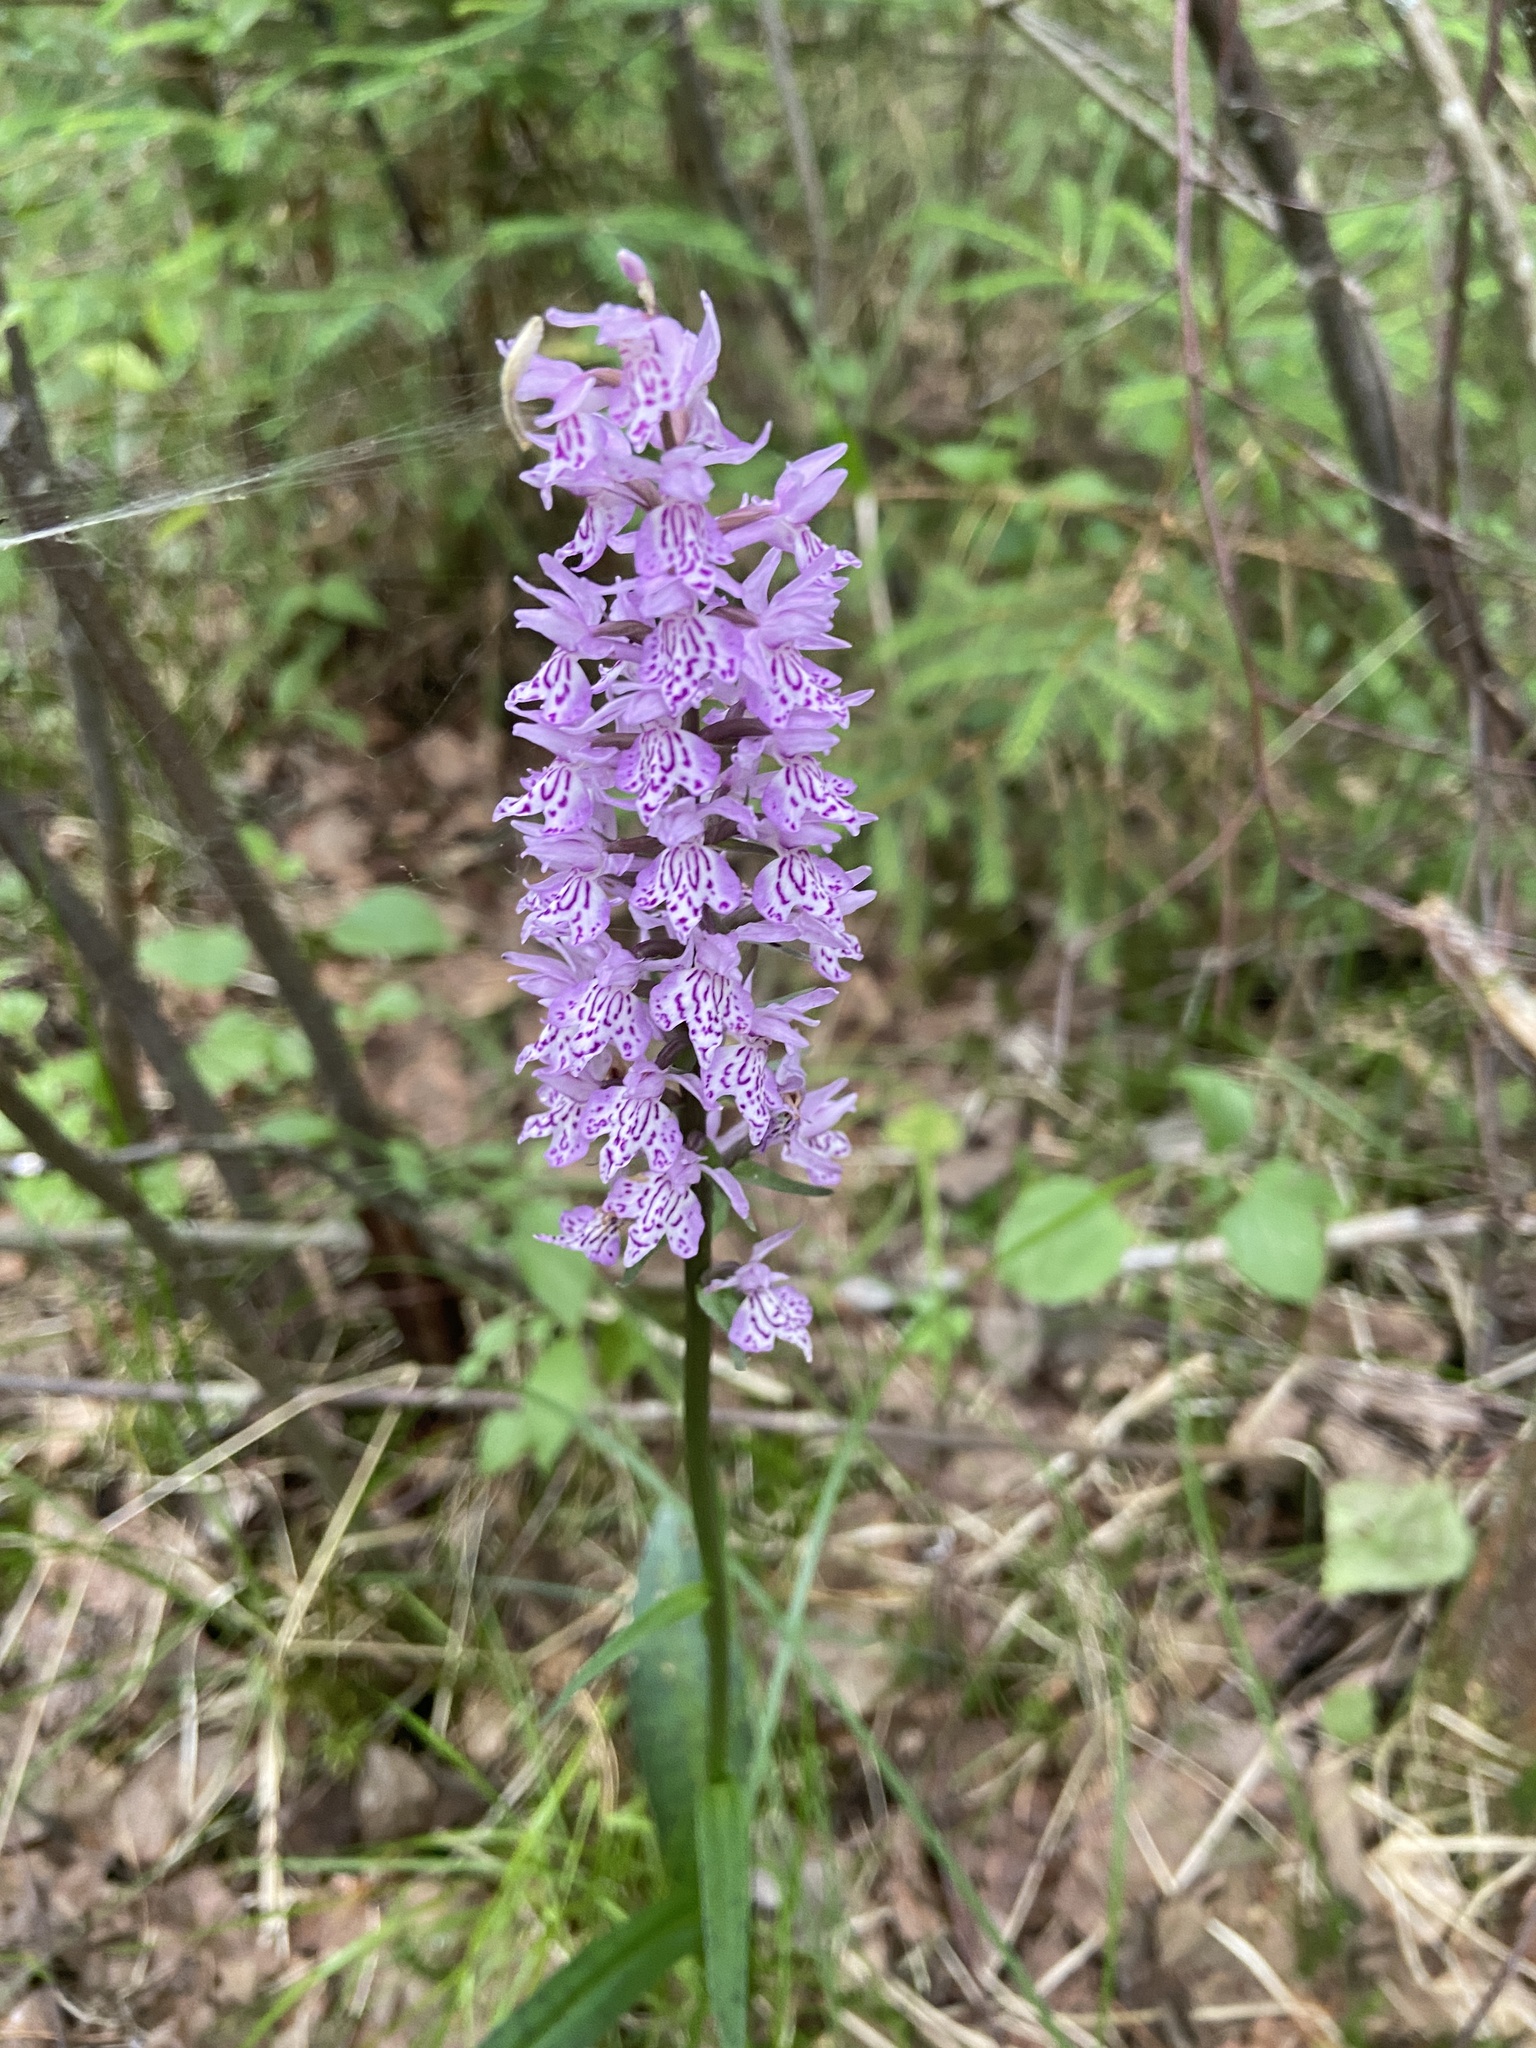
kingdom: Plantae
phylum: Tracheophyta
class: Liliopsida
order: Asparagales
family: Orchidaceae
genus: Dactylorhiza
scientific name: Dactylorhiza maculata
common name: Heath spotted-orchid
